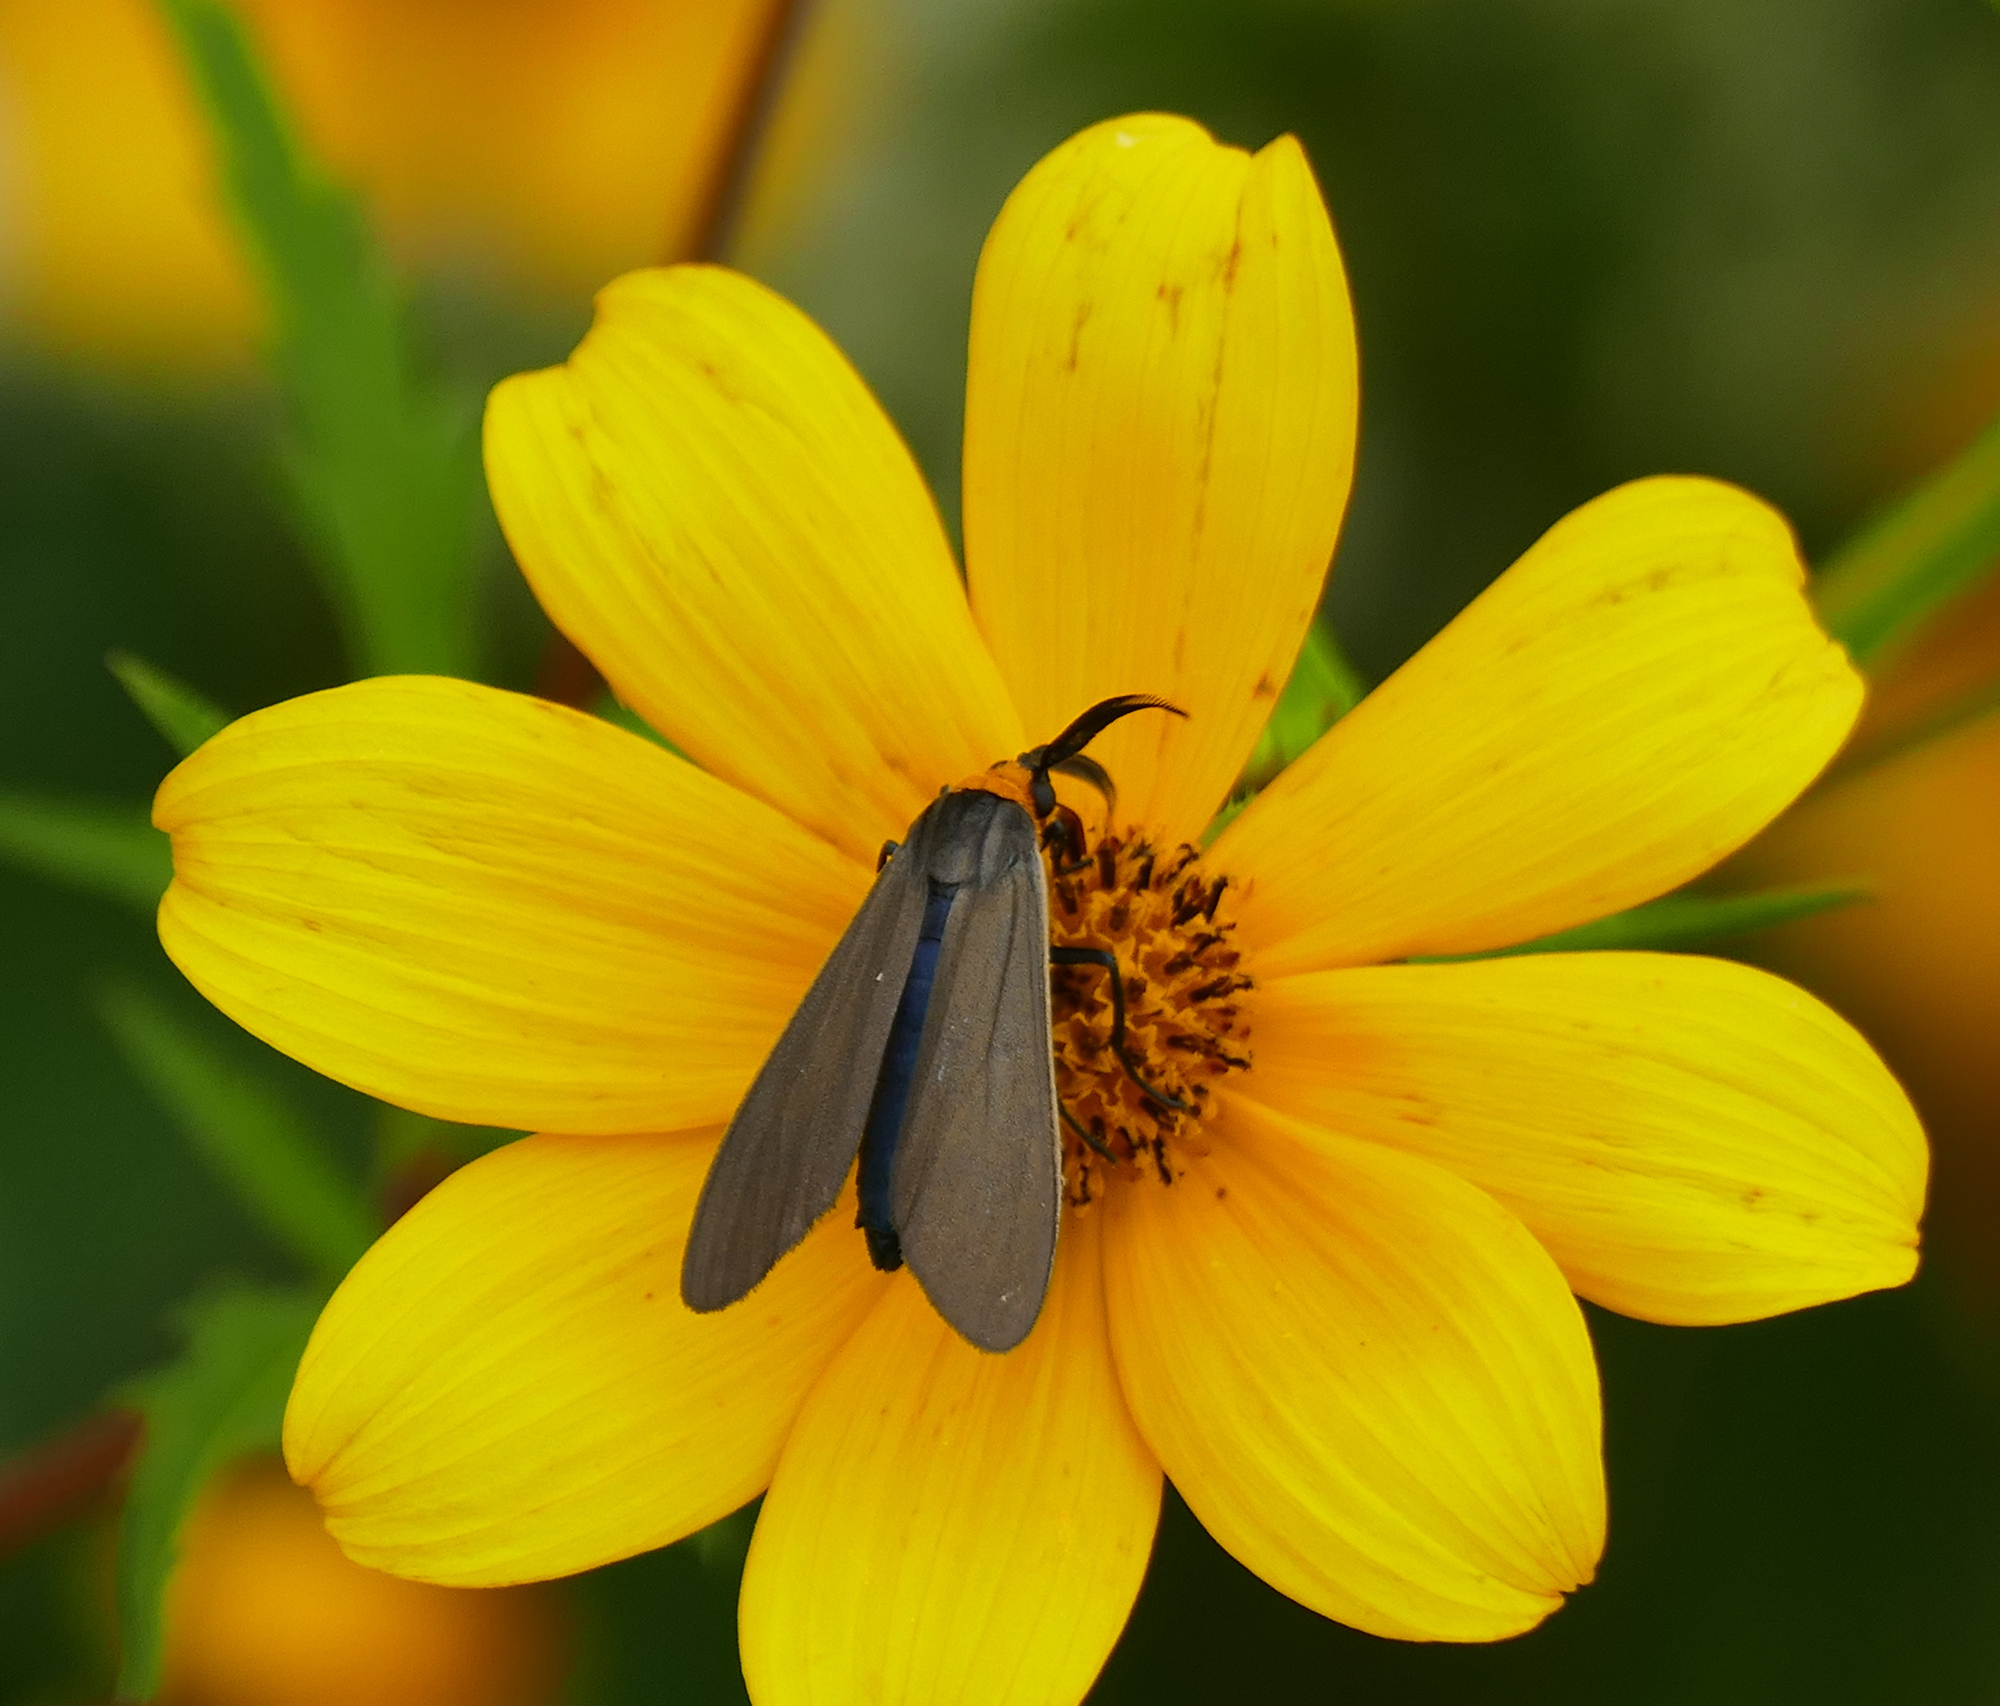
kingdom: Animalia
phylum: Arthropoda
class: Insecta
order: Lepidoptera
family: Erebidae
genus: Cisseps
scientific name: Cisseps fulvicollis
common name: Yellow-collared scape moth
